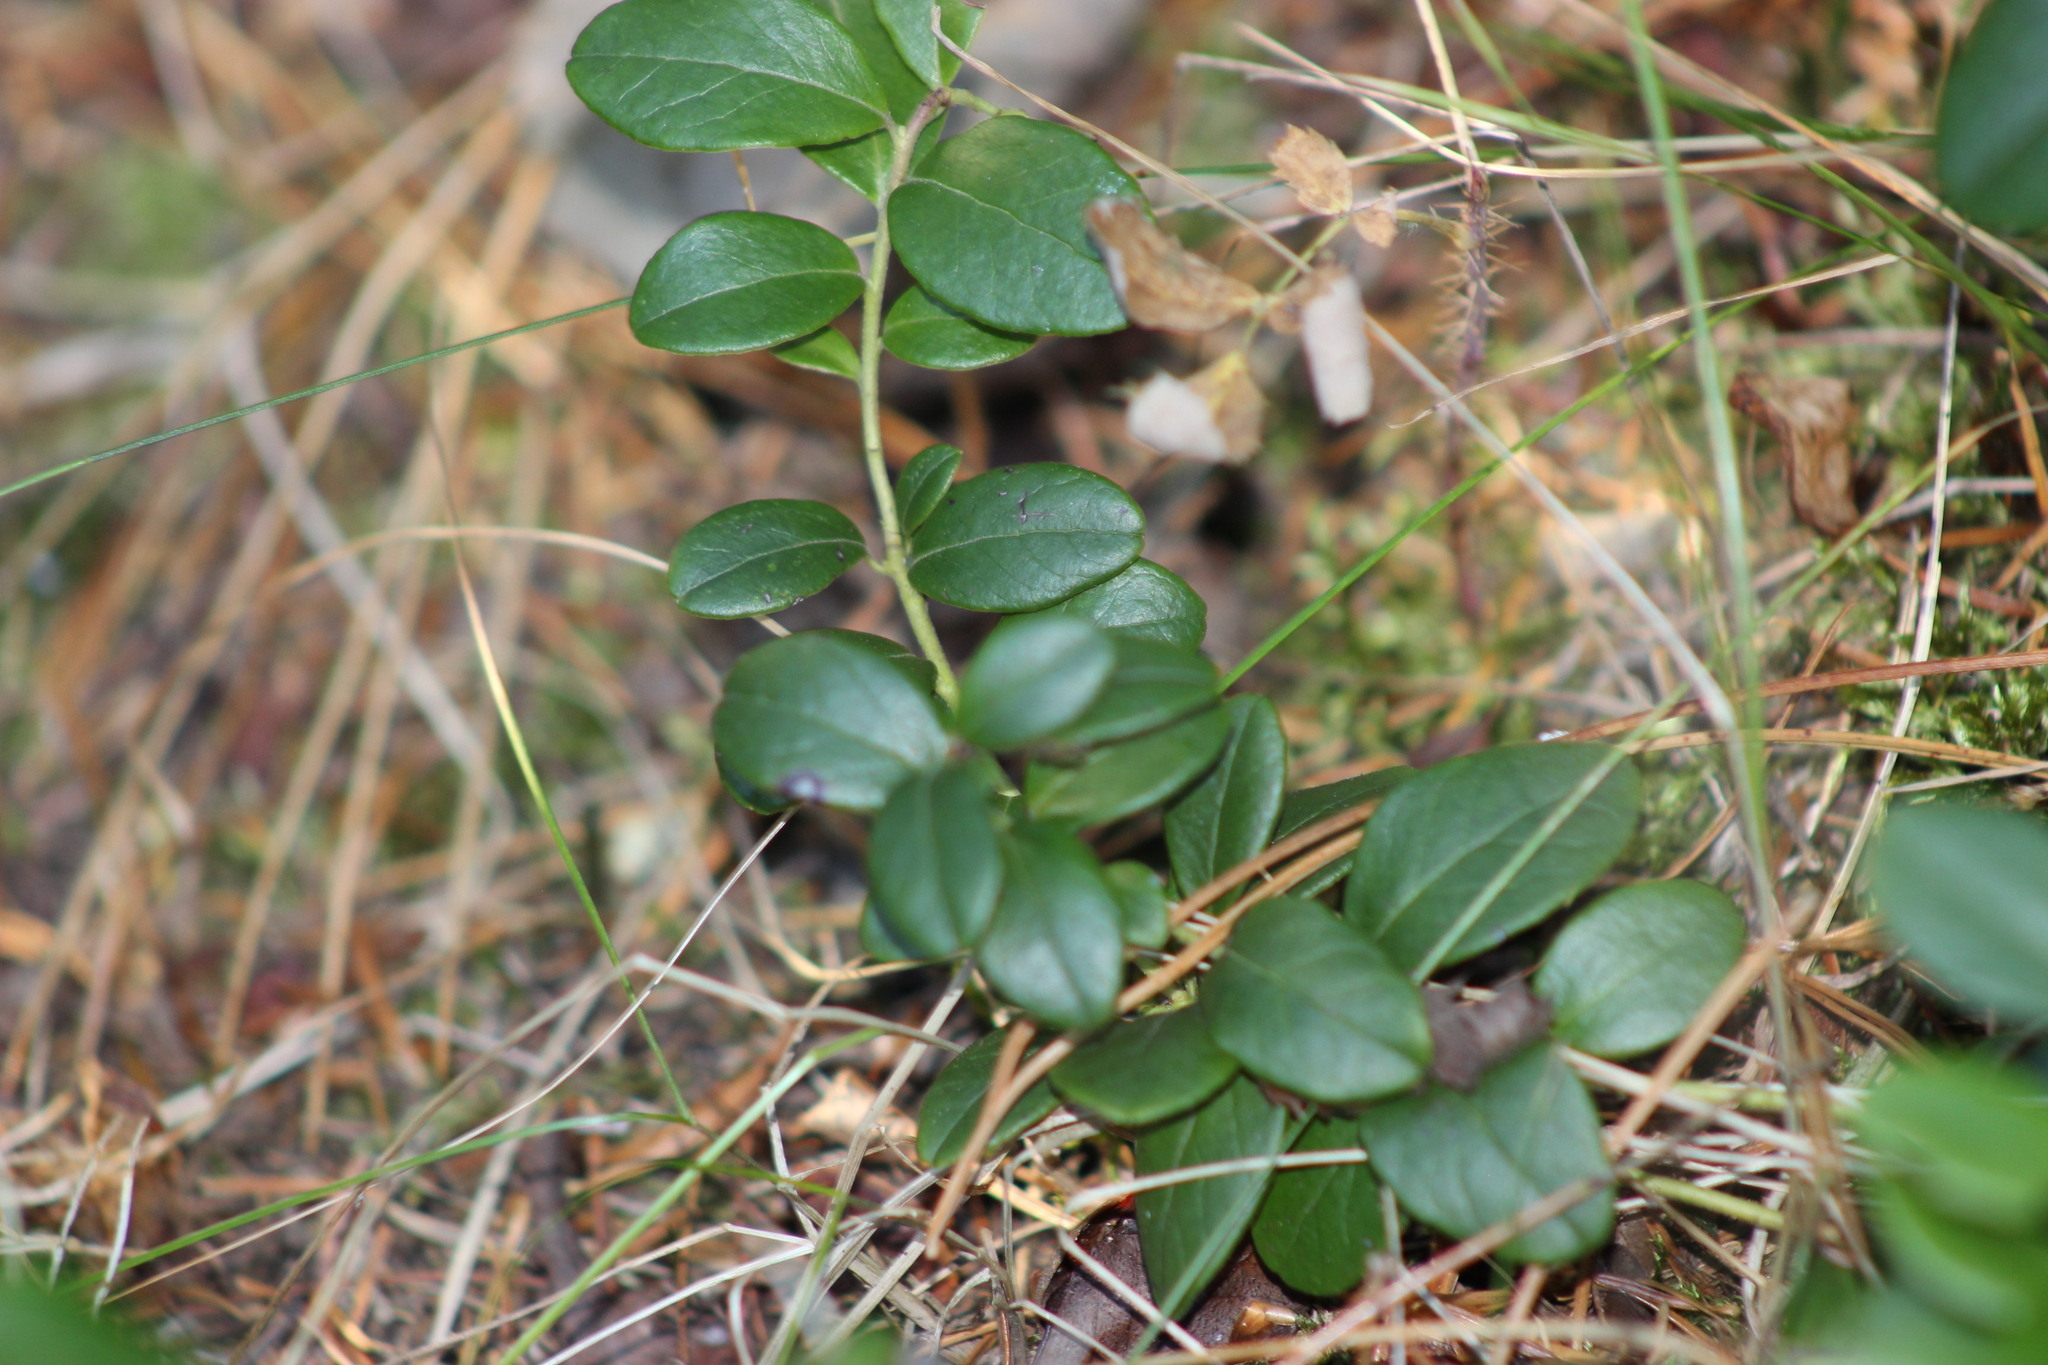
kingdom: Plantae
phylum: Tracheophyta
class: Magnoliopsida
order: Ericales
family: Ericaceae
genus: Vaccinium
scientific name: Vaccinium vitis-idaea
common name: Cowberry
